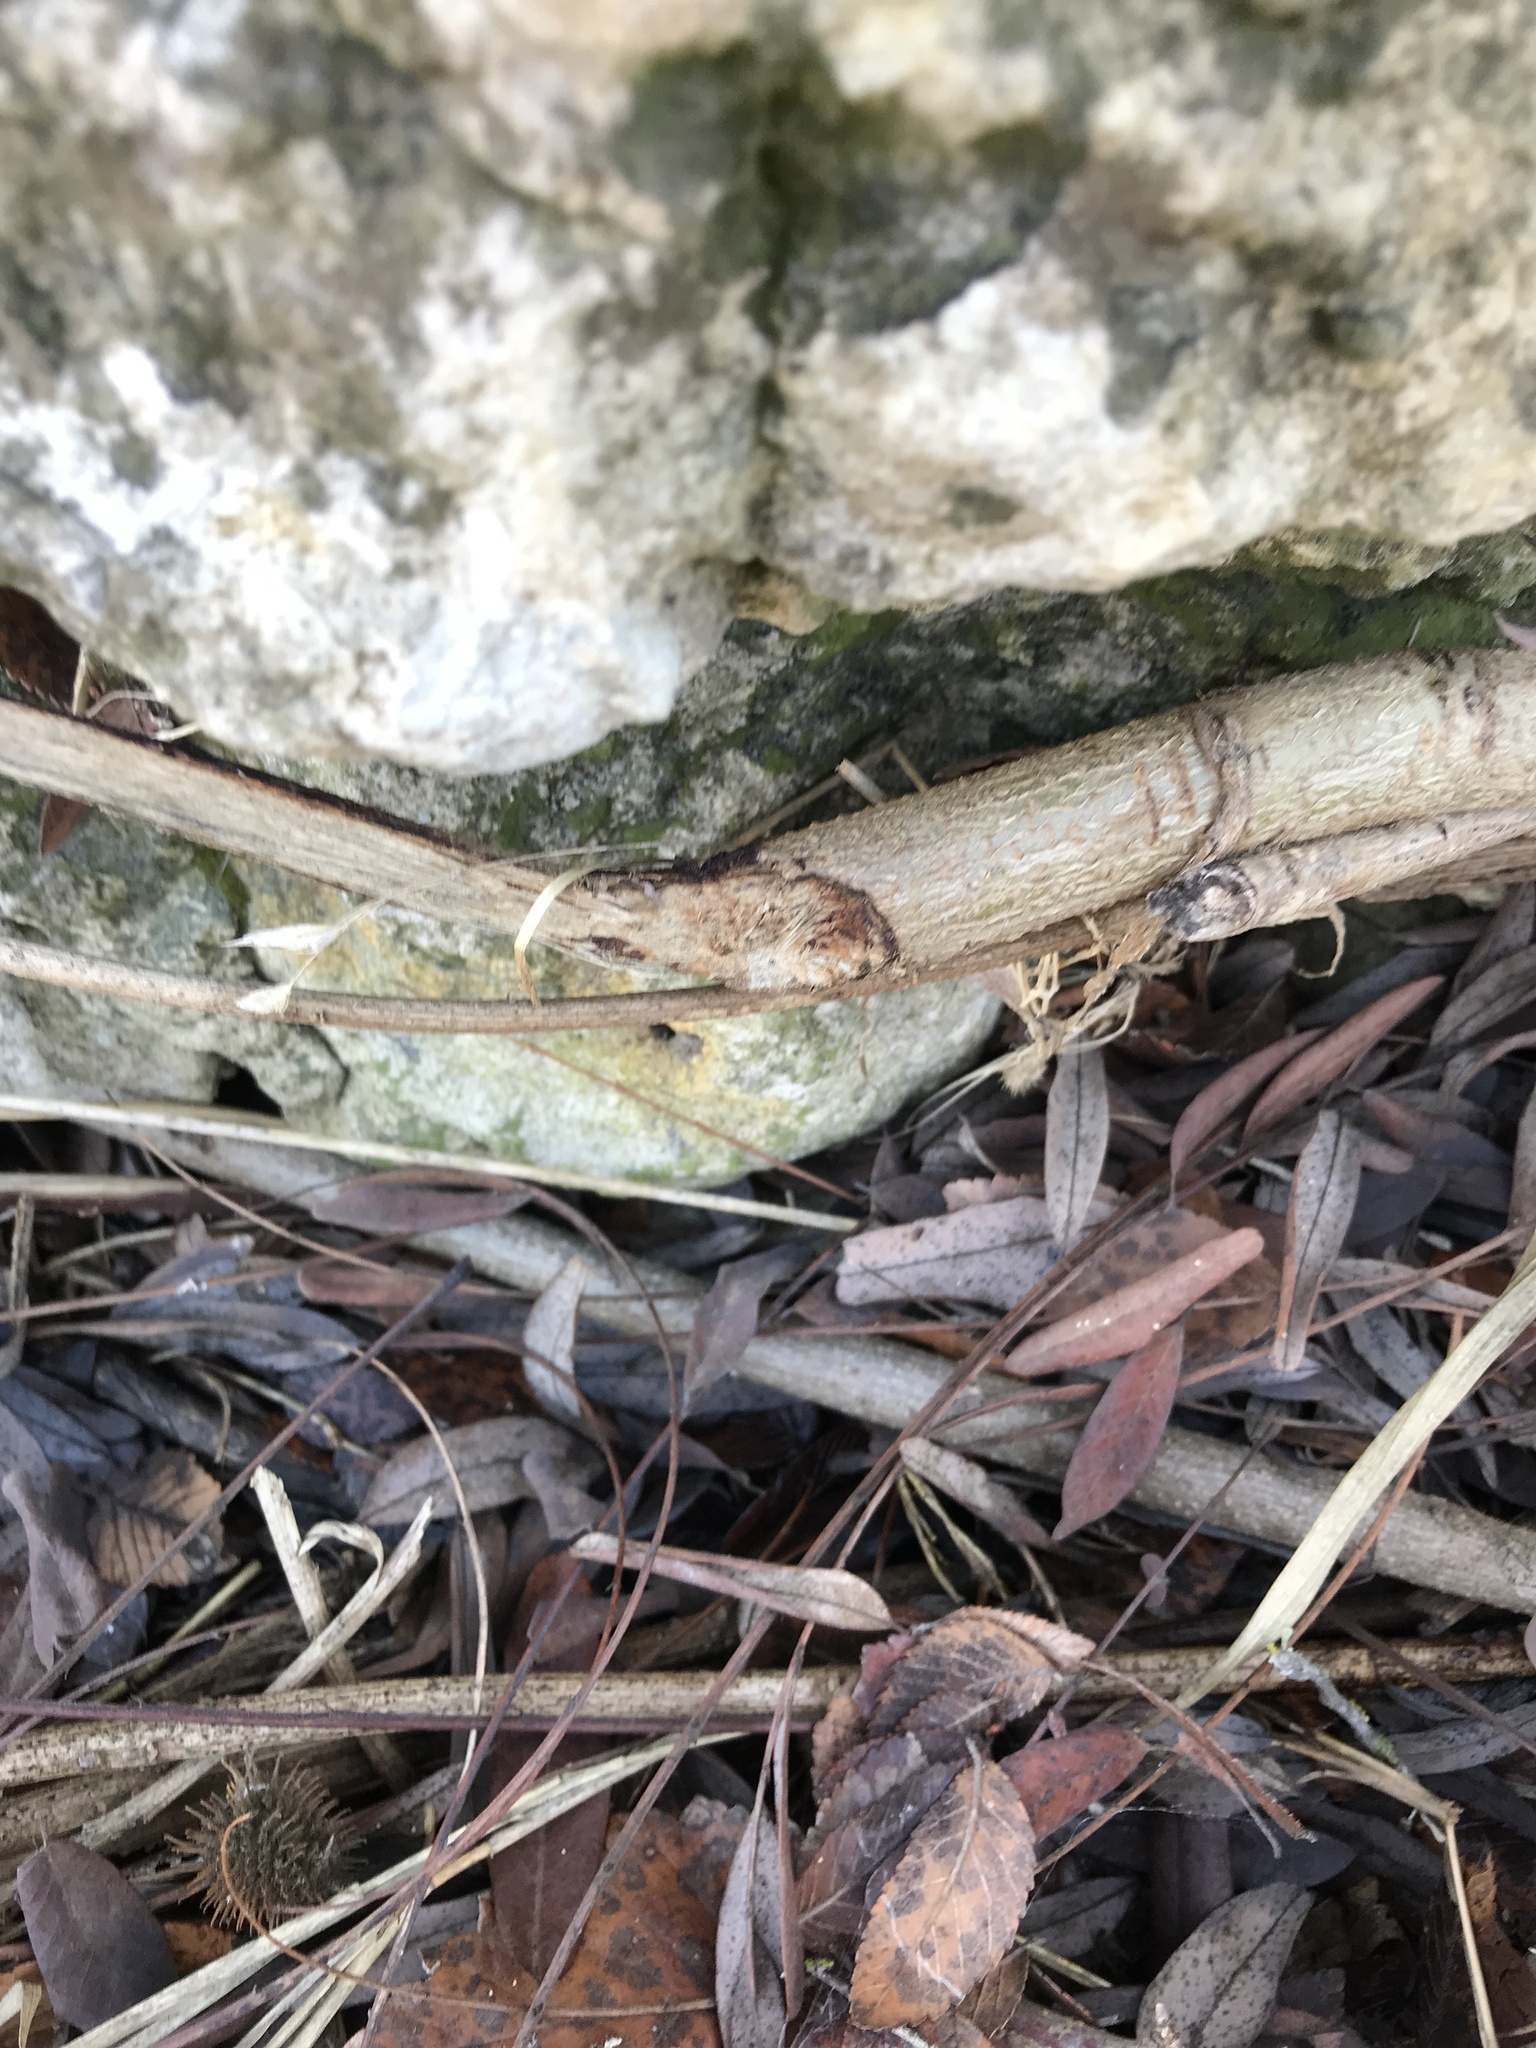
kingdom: Animalia
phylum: Chordata
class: Mammalia
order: Rodentia
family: Castoridae
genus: Castor
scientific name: Castor canadensis
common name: American beaver
